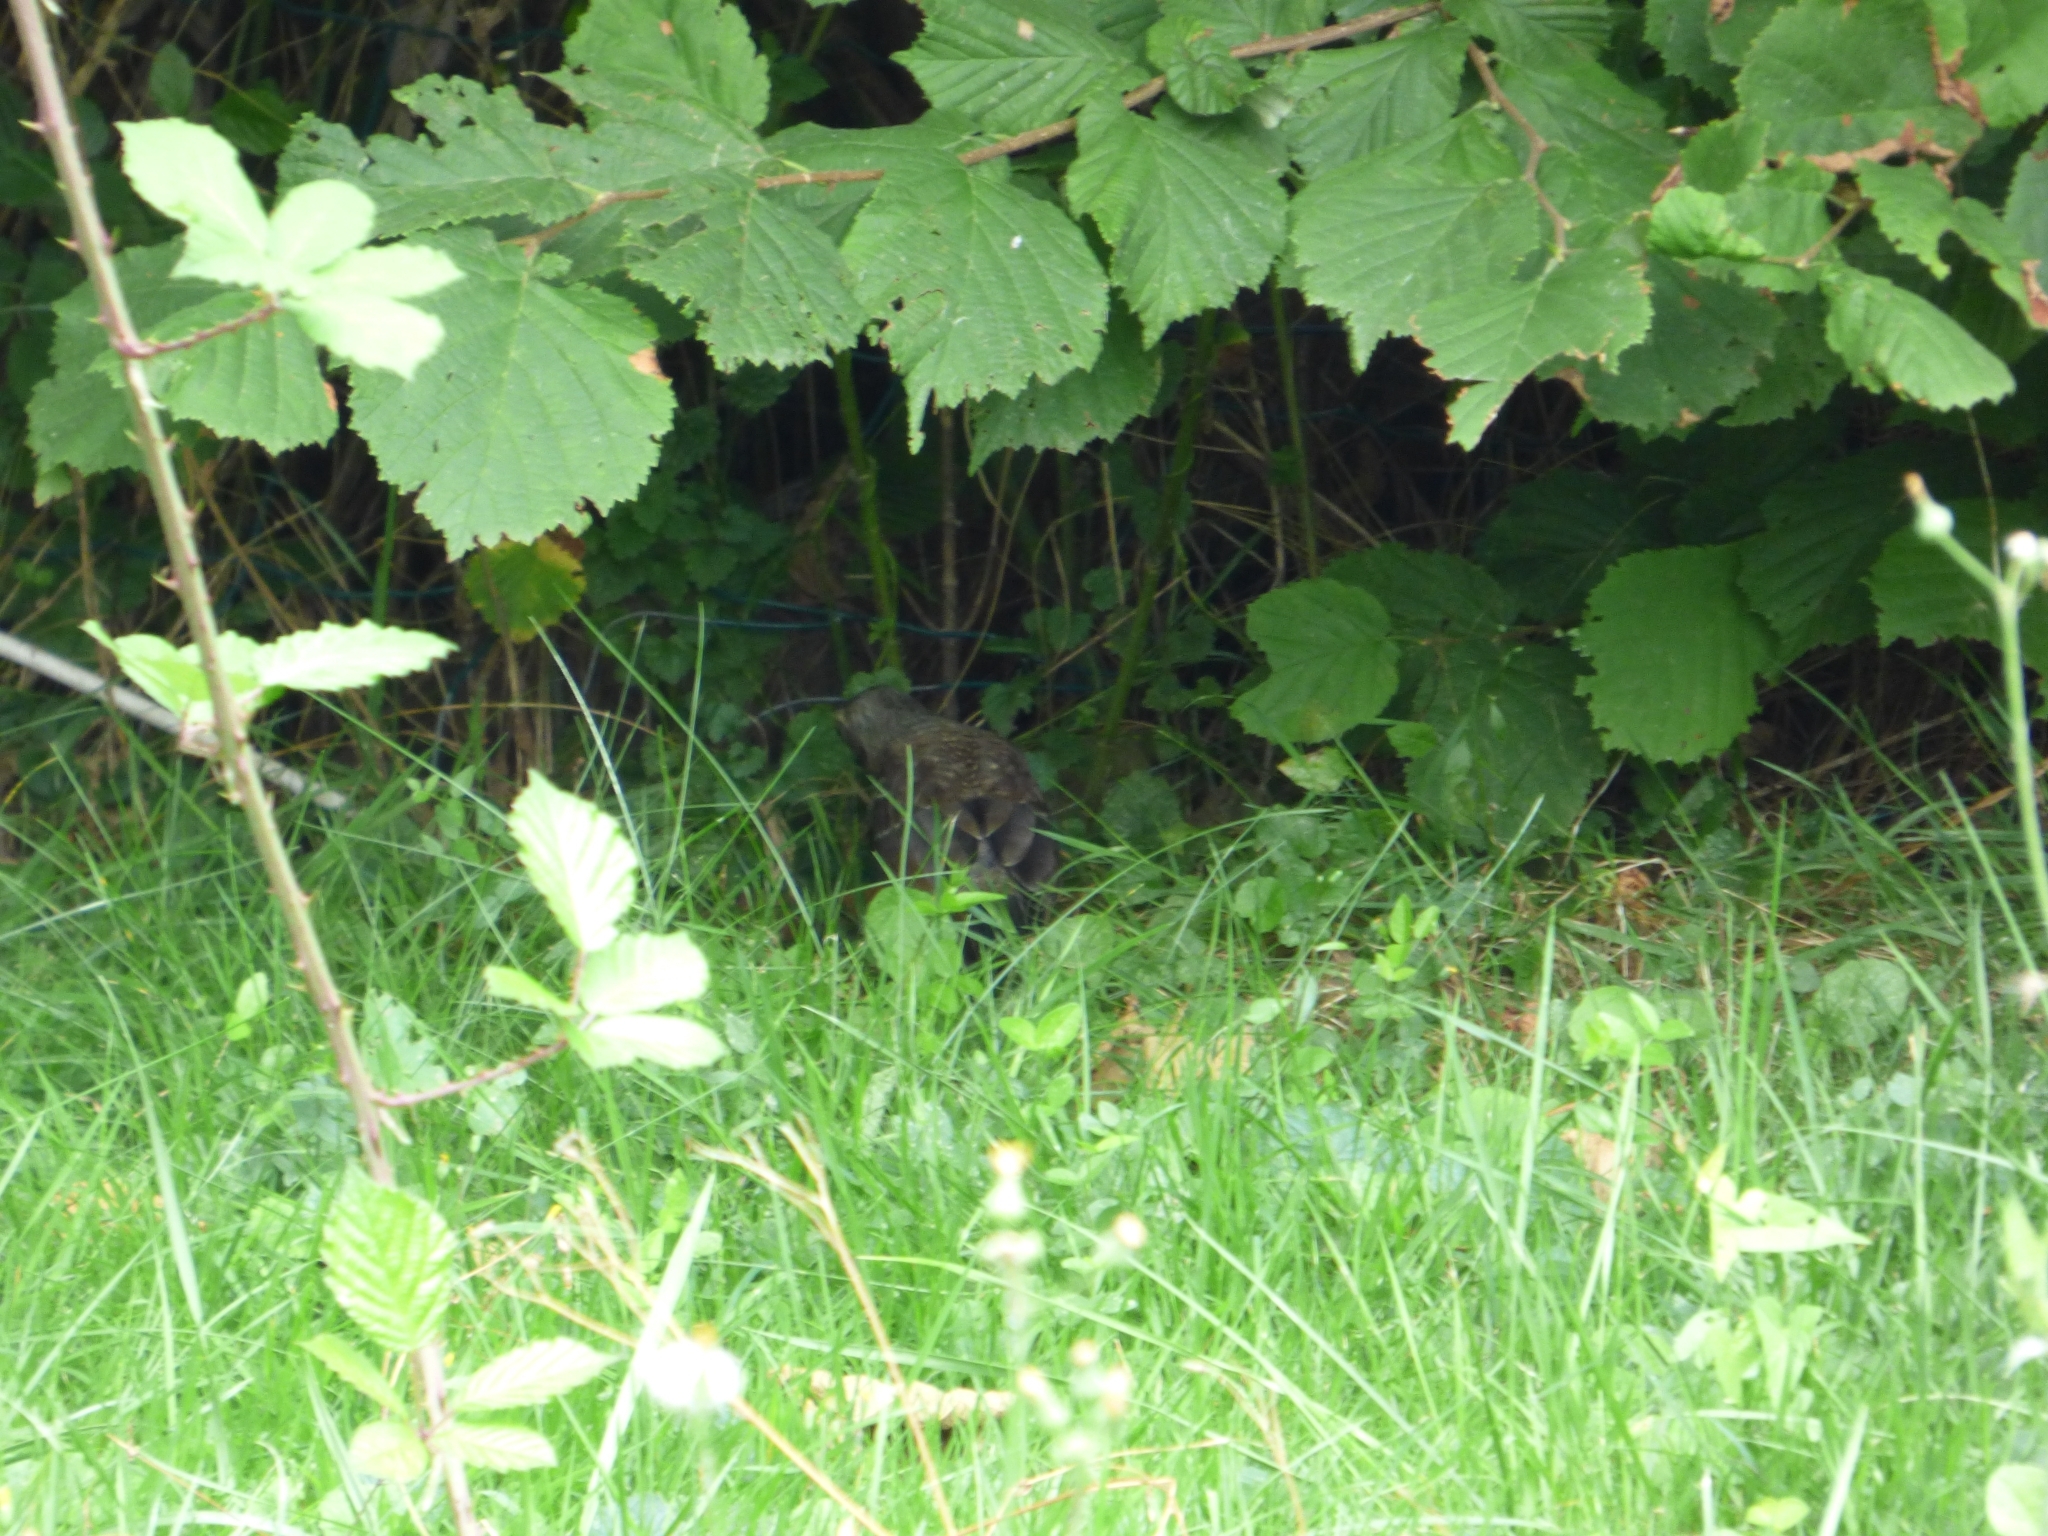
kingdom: Animalia
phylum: Chordata
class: Aves
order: Passeriformes
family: Turdidae
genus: Turdus
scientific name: Turdus pilaris
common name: Fieldfare
